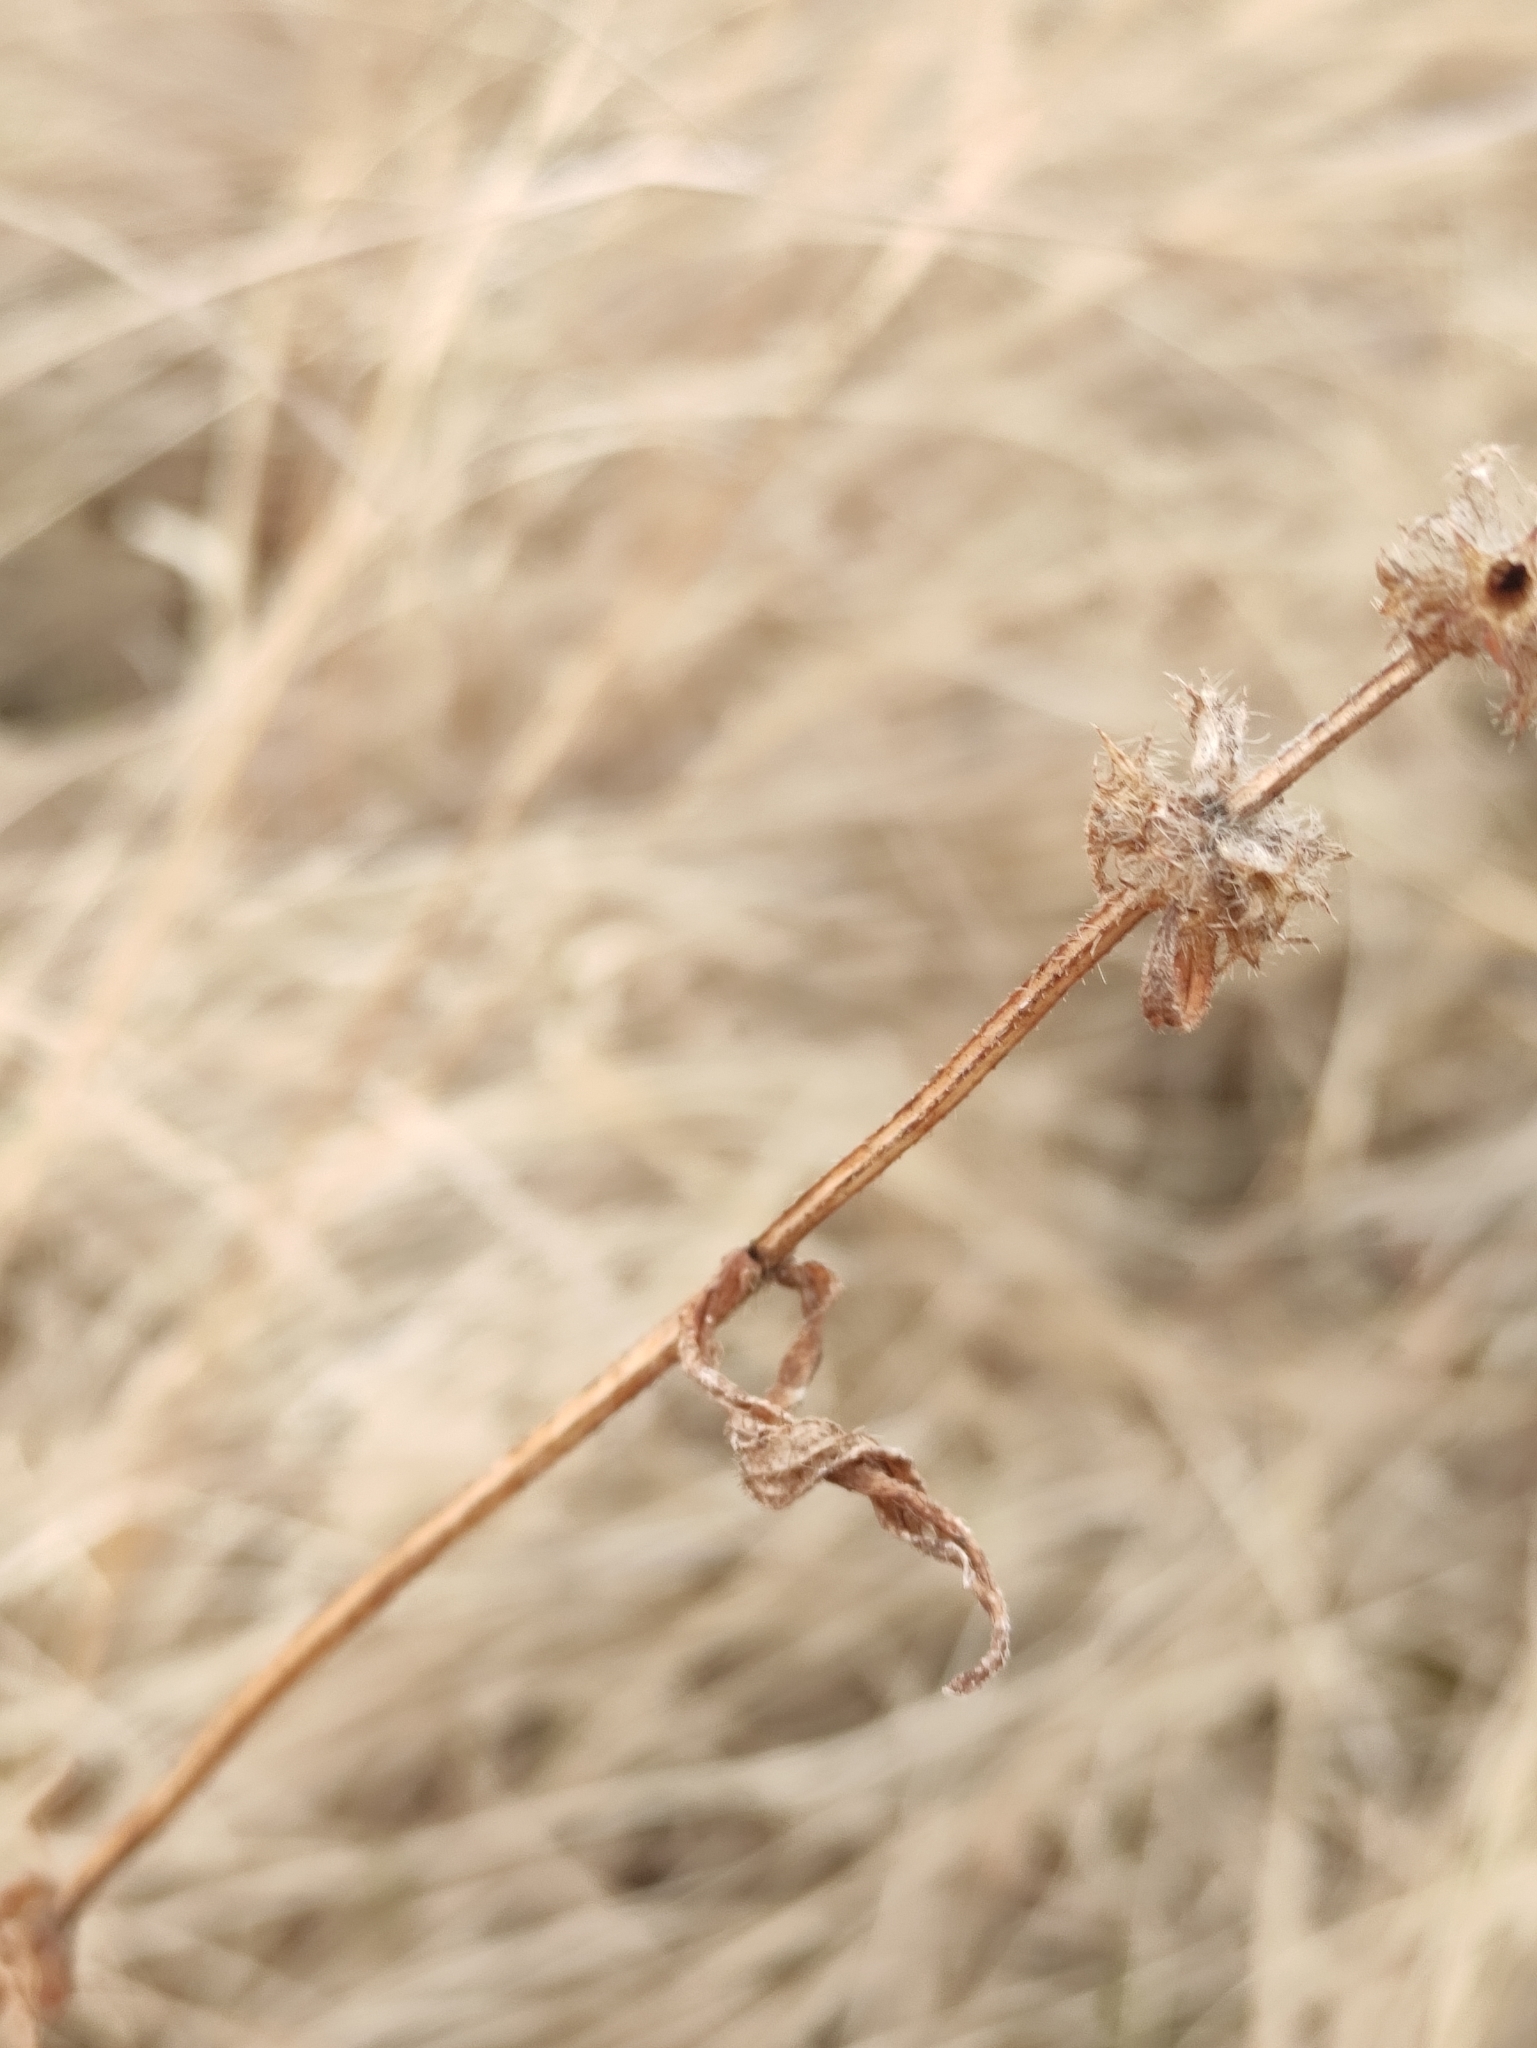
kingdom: Plantae
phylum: Tracheophyta
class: Magnoliopsida
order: Lamiales
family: Lamiaceae
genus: Stachys
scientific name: Stachys aspera
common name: Hyssopleaf hedgenettle
